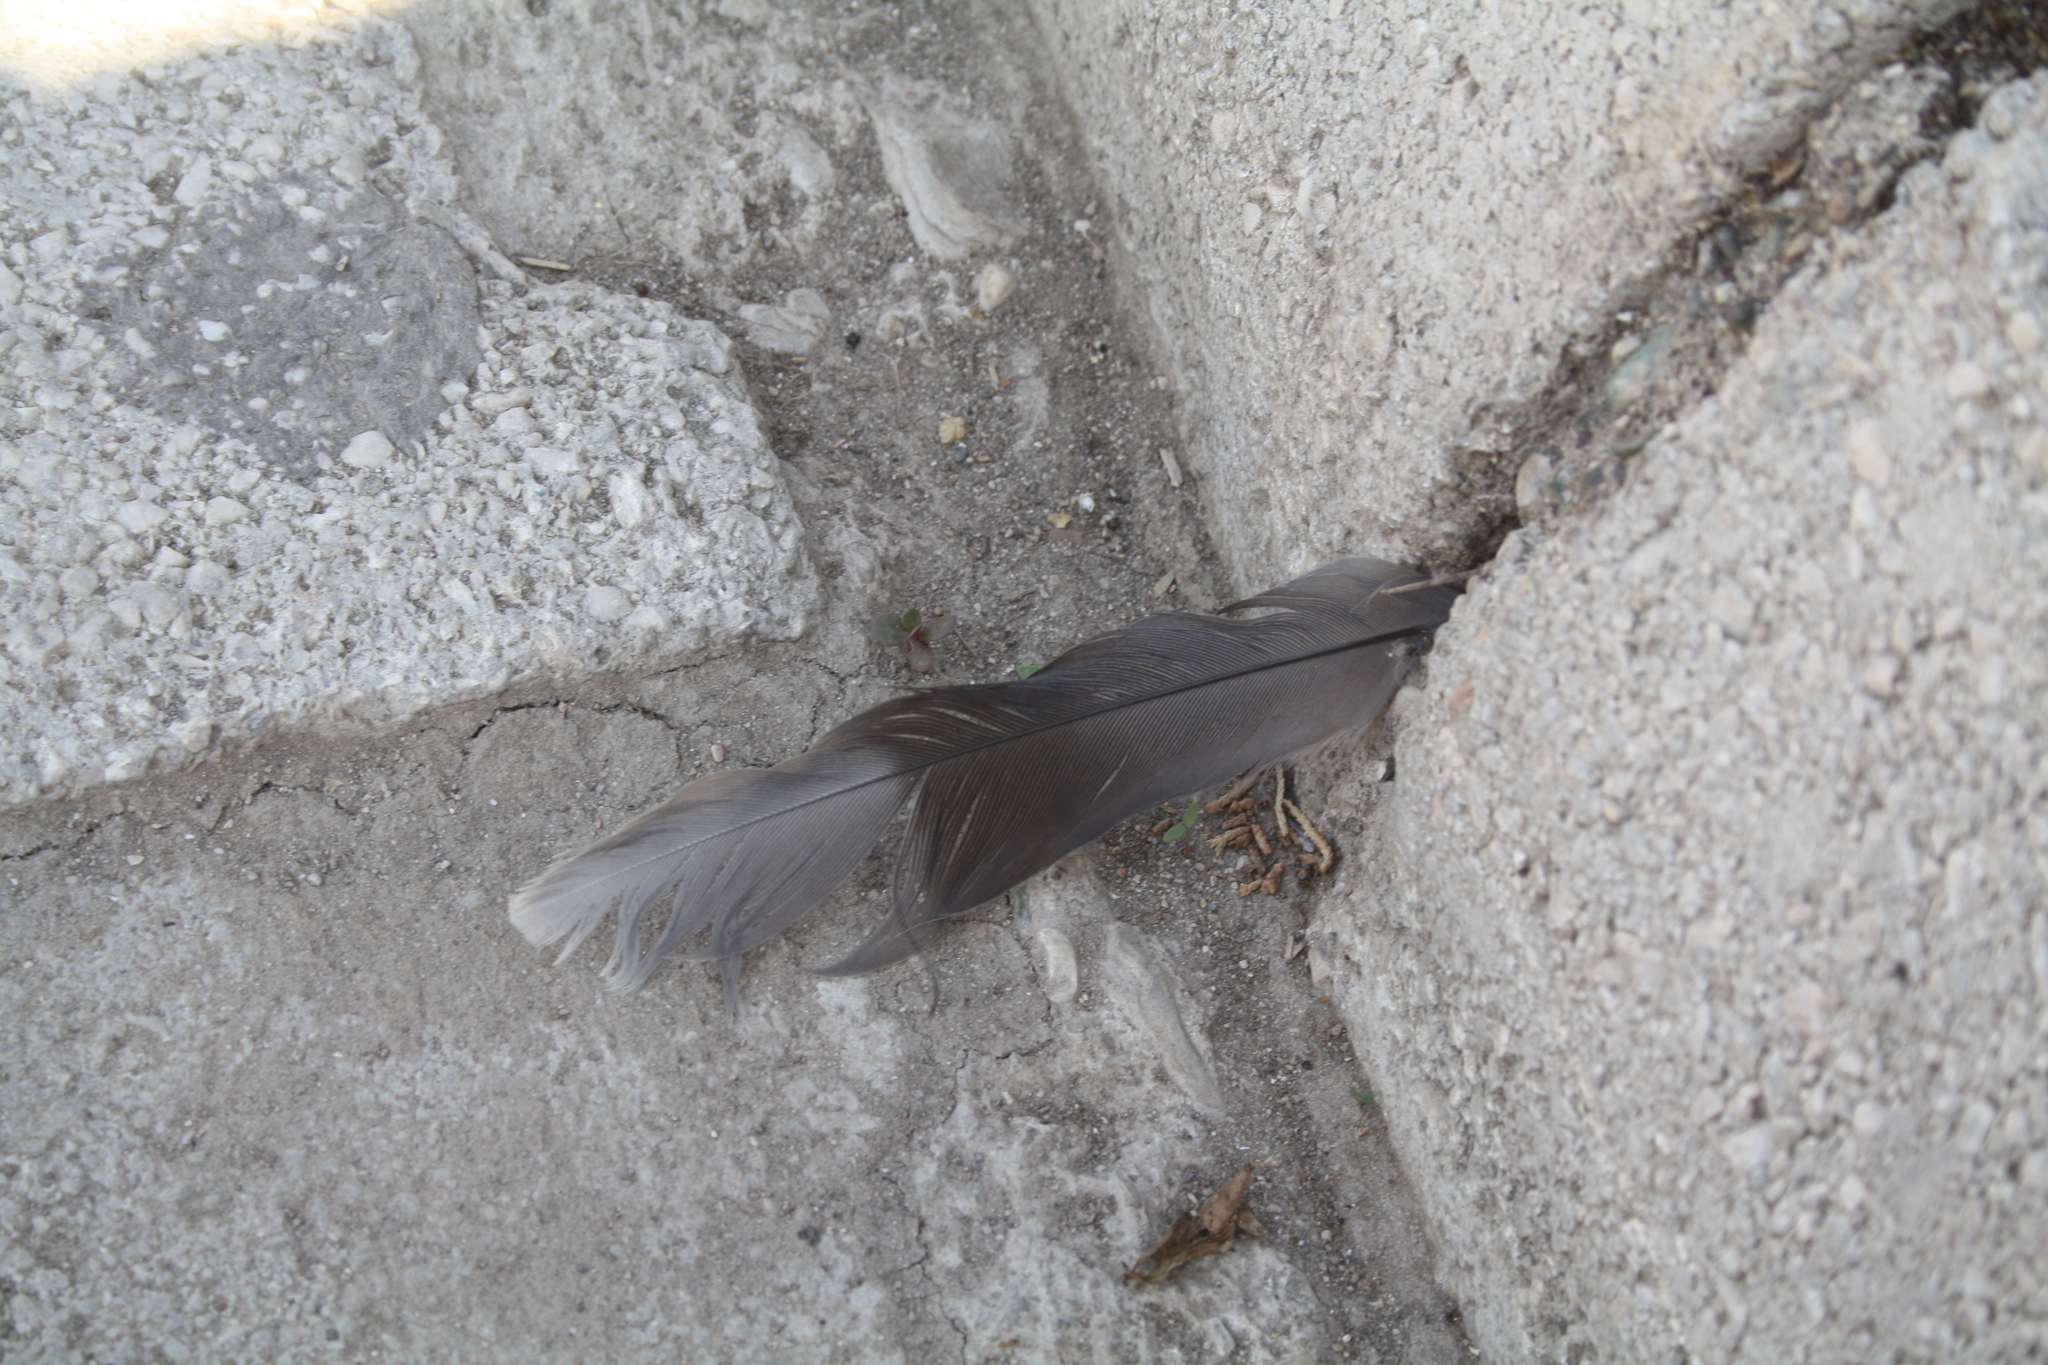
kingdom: Animalia
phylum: Chordata
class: Aves
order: Columbiformes
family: Columbidae
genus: Spilopelia
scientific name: Spilopelia senegalensis
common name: Laughing dove
